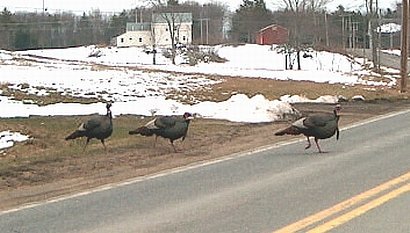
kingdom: Animalia
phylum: Chordata
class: Aves
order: Galliformes
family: Phasianidae
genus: Meleagris
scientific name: Meleagris gallopavo
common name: Wild turkey
